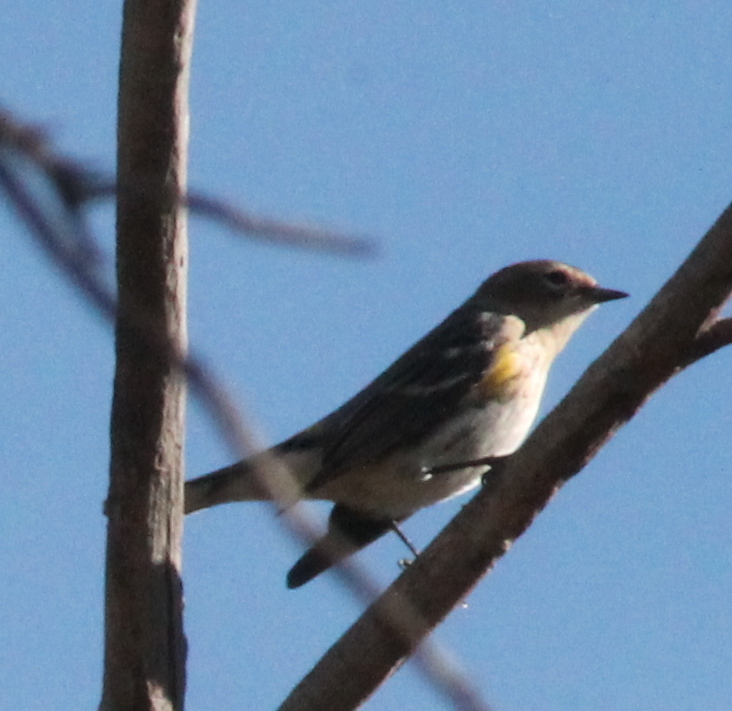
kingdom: Animalia
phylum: Chordata
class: Aves
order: Passeriformes
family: Parulidae
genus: Setophaga
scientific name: Setophaga coronata
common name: Myrtle warbler
